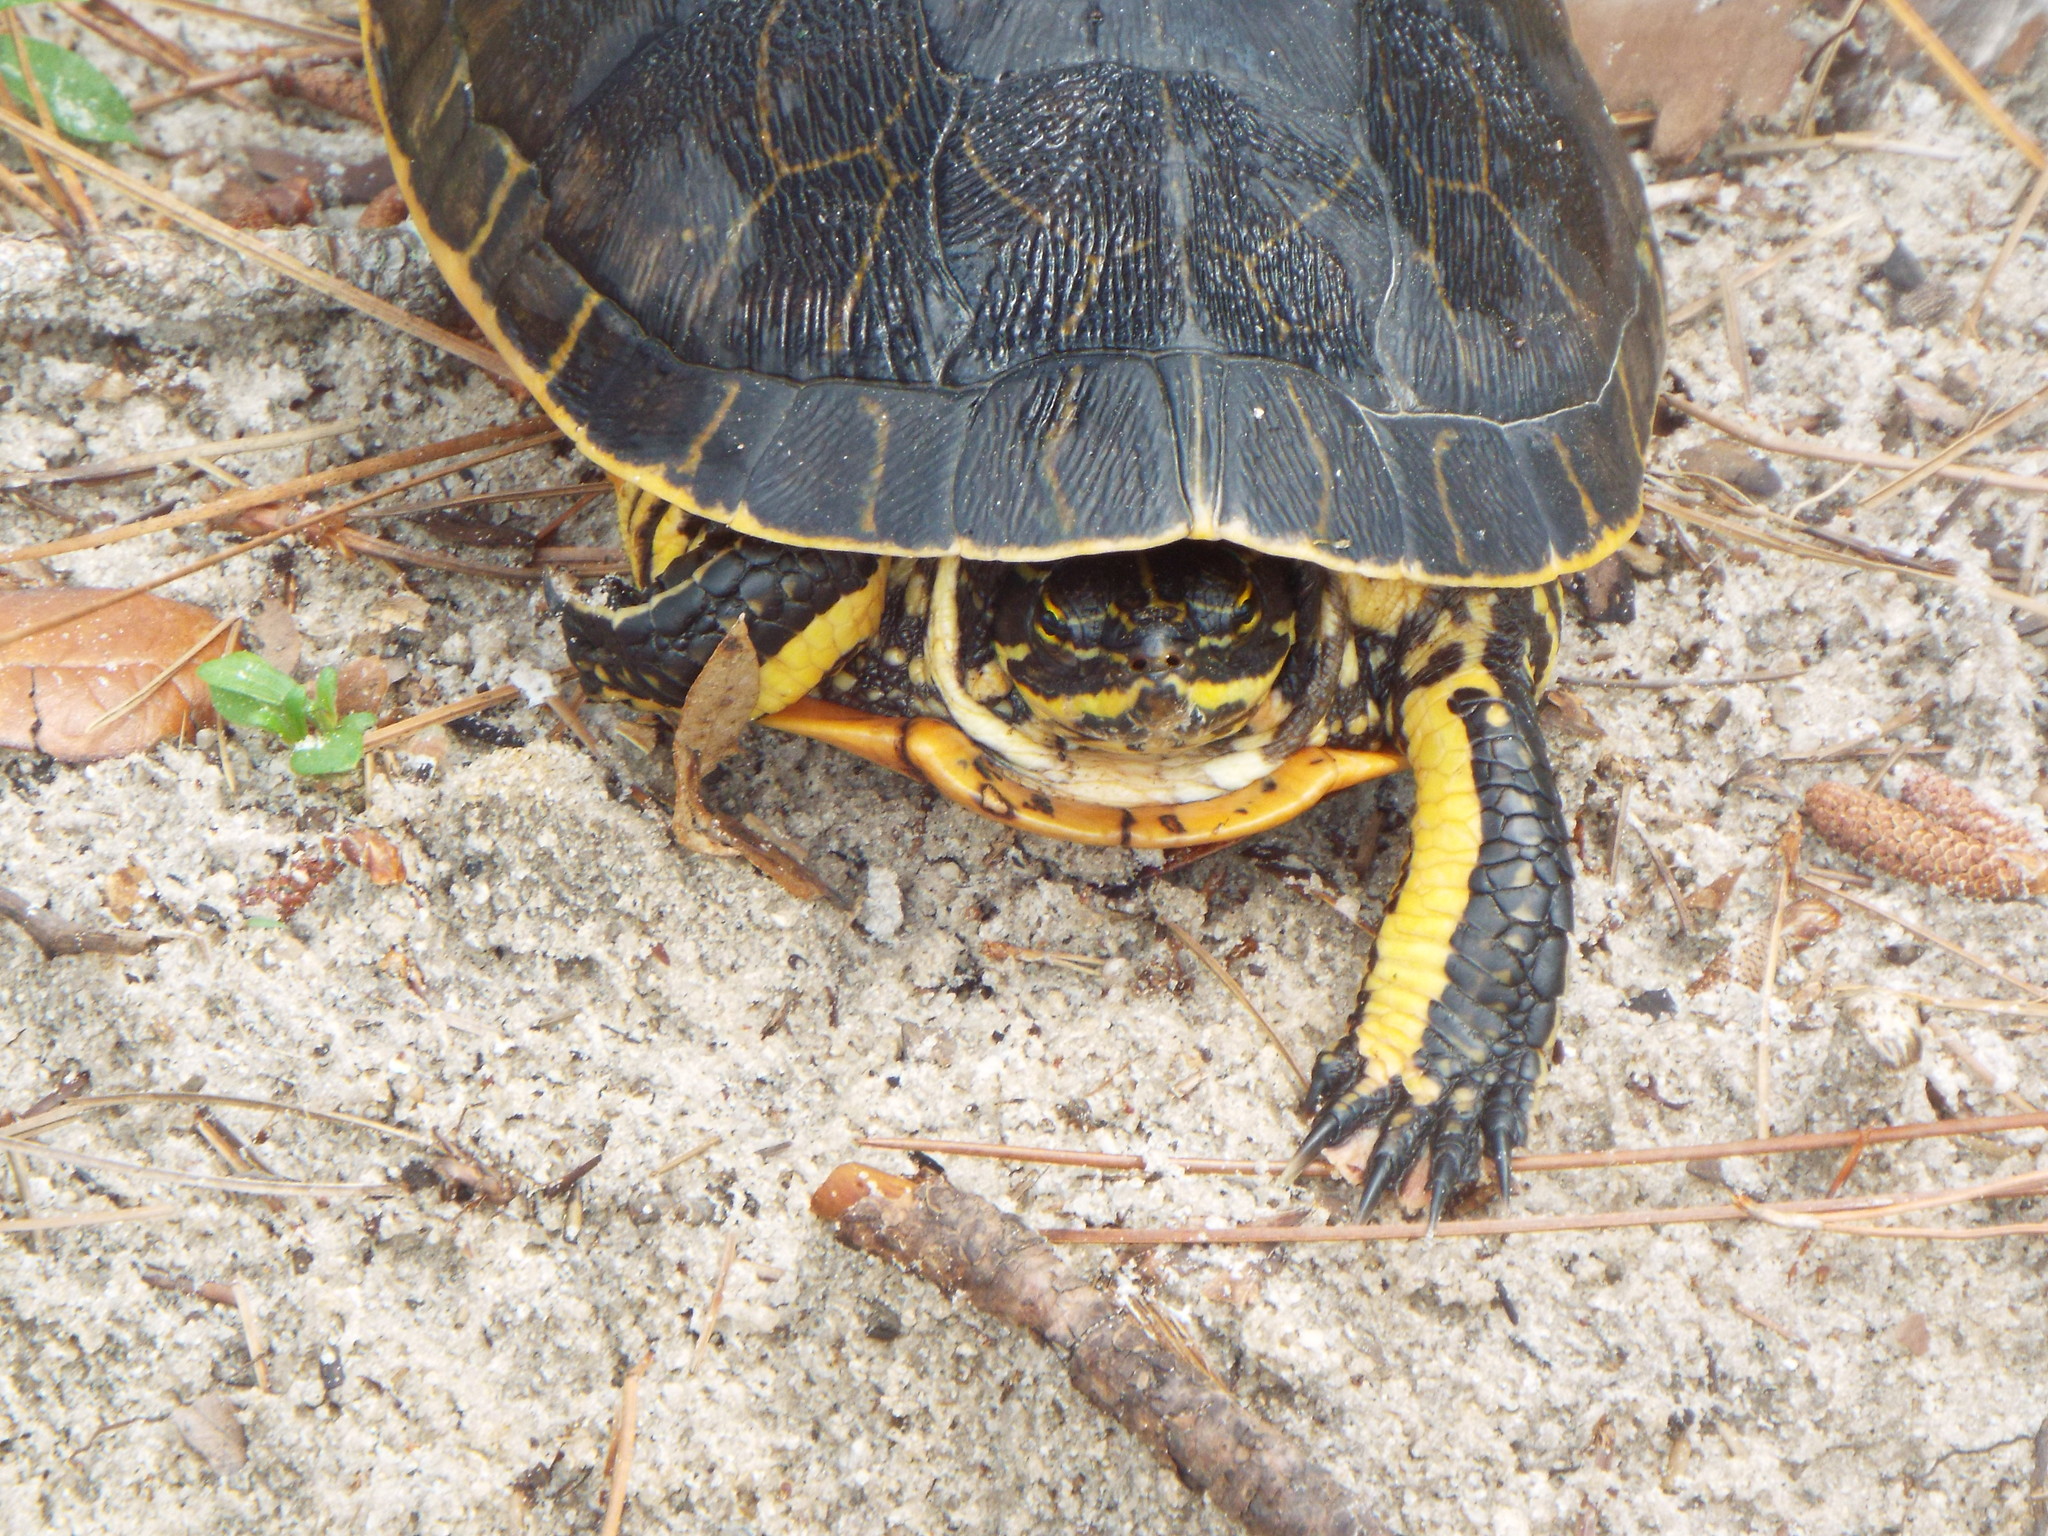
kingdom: Animalia
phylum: Chordata
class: Testudines
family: Emydidae
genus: Deirochelys
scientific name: Deirochelys reticularia
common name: Chicken turtle
